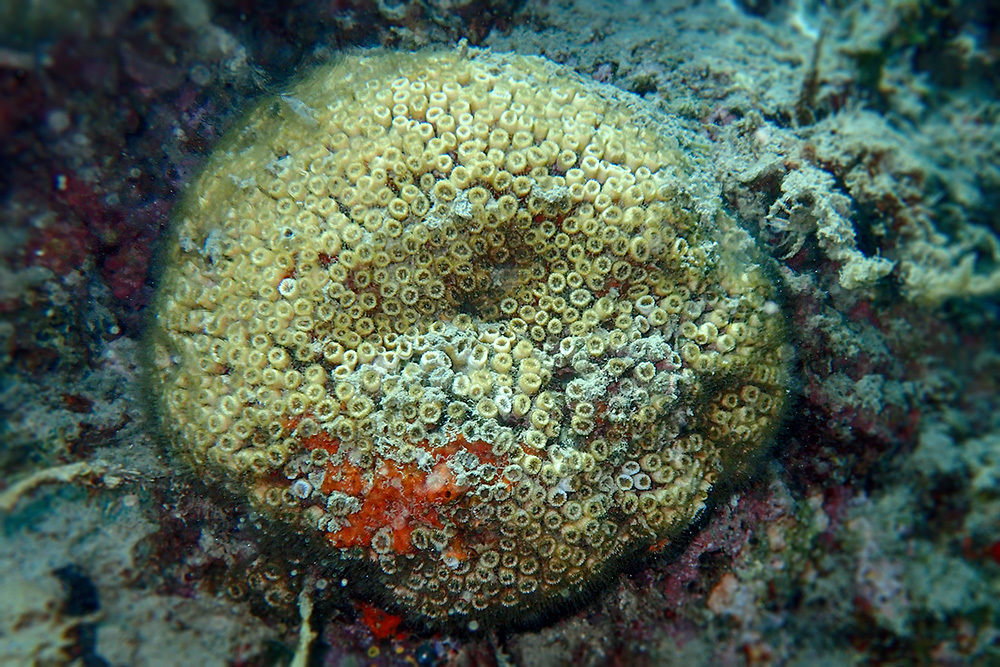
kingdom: Animalia
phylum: Cnidaria
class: Anthozoa
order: Scleractinia
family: Cladocoridae
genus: Cladocora
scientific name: Cladocora caespitosa
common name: Cladocora
